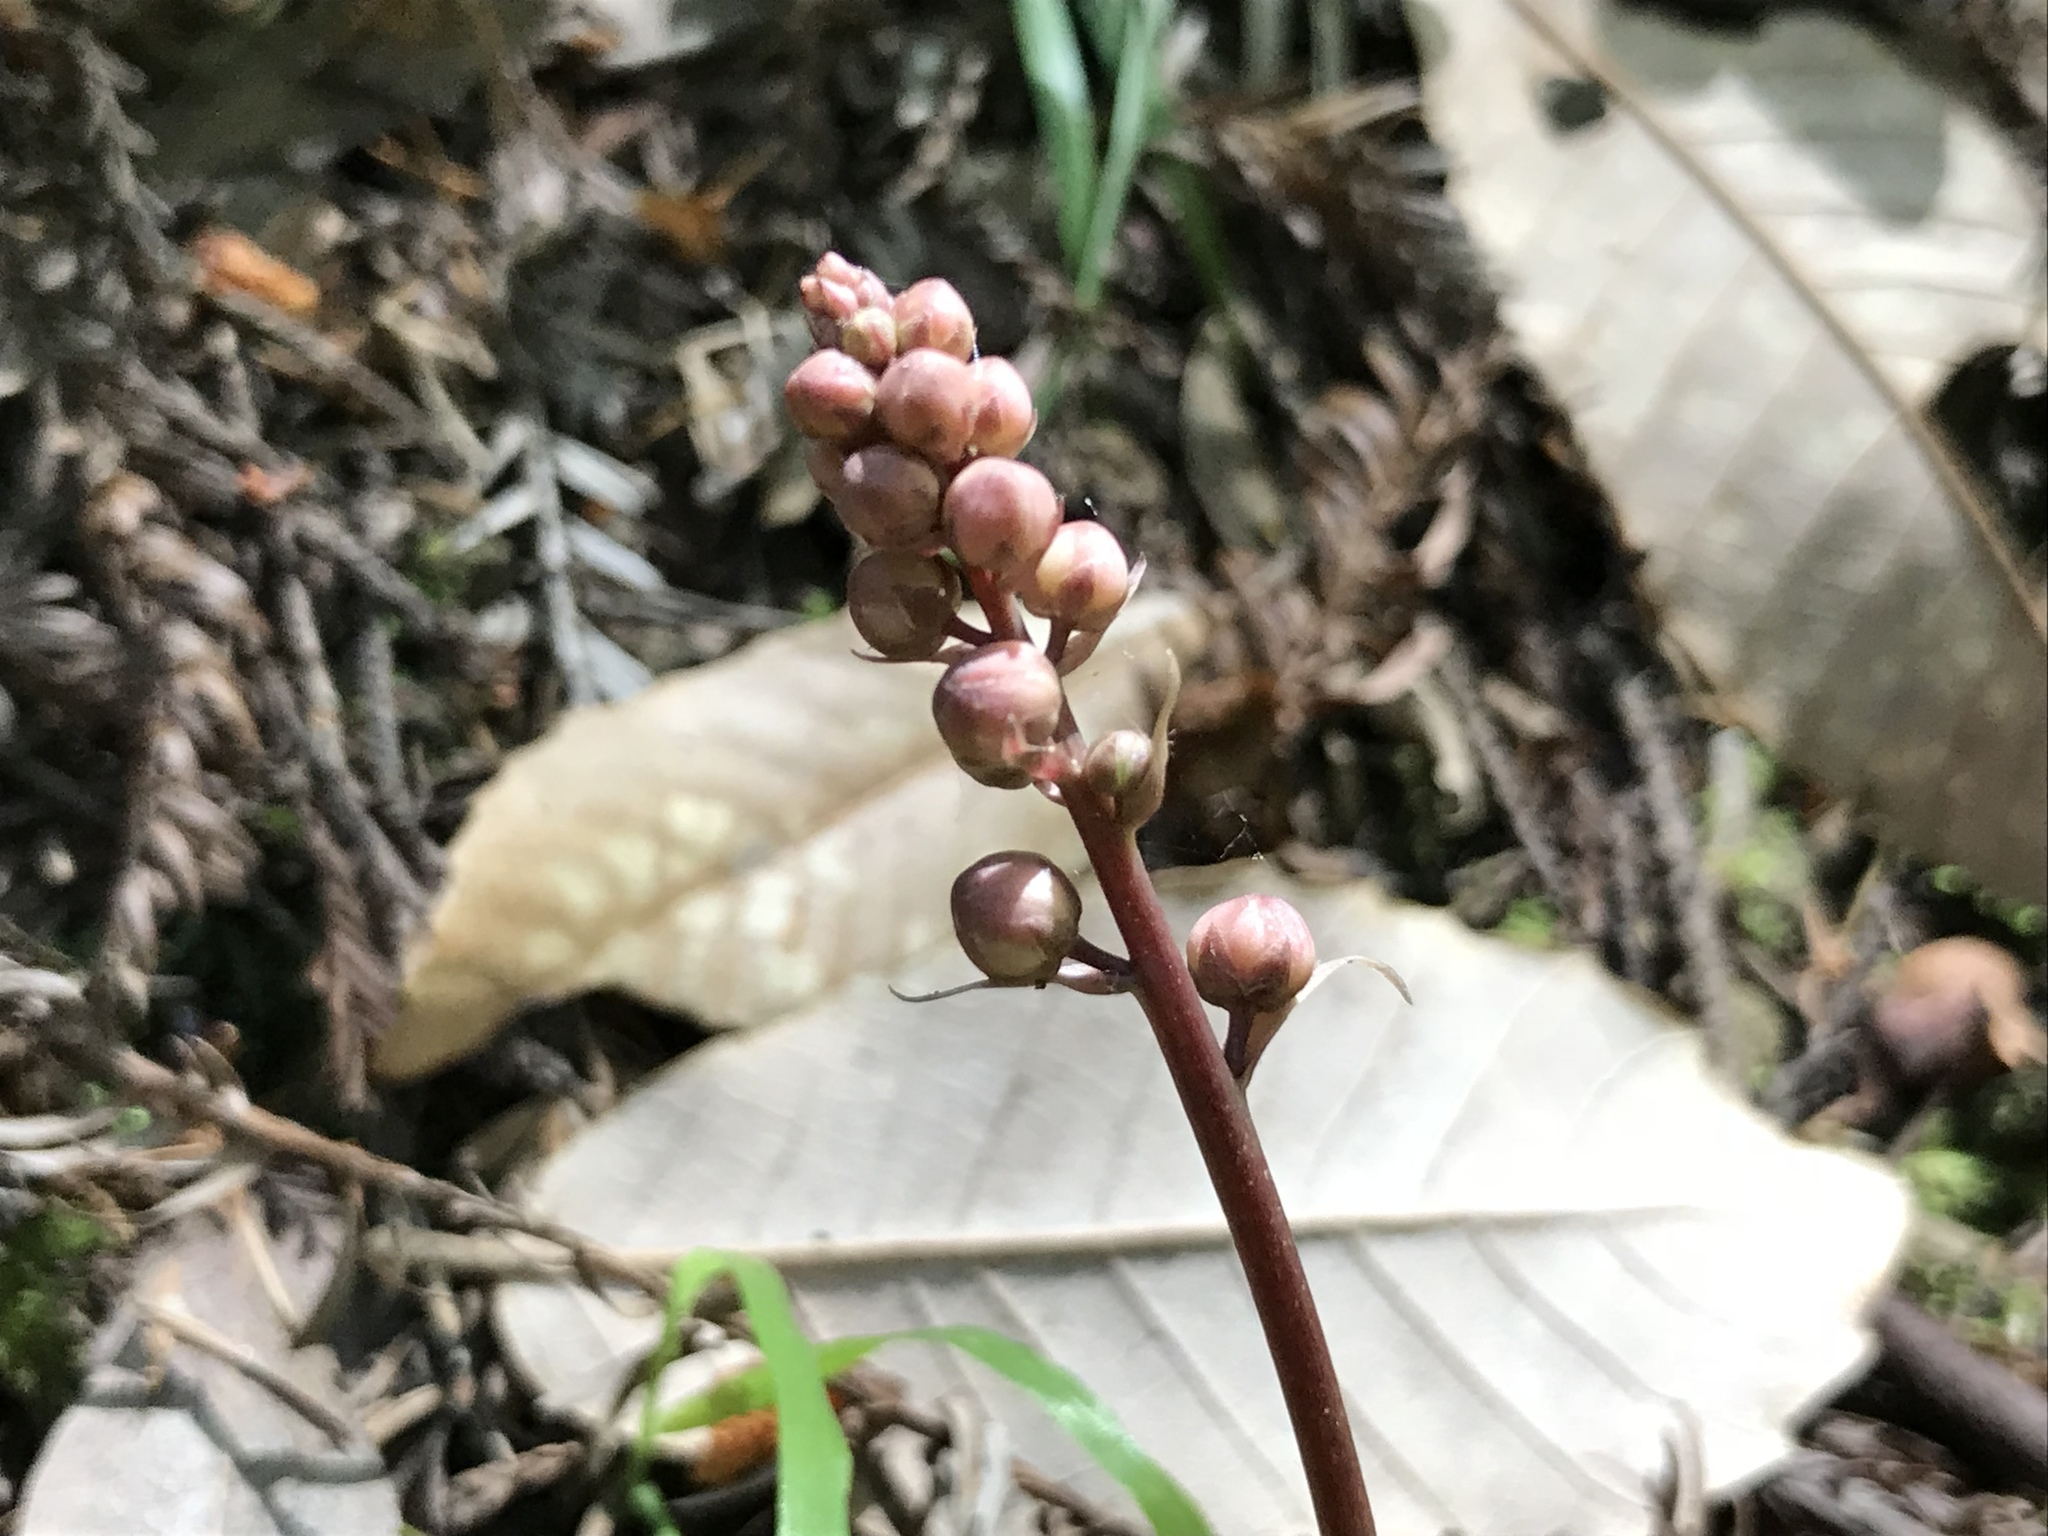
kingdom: Plantae
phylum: Tracheophyta
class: Magnoliopsida
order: Ericales
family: Ericaceae
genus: Pyrola
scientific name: Pyrola aphylla
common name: Leafless wintergreen
